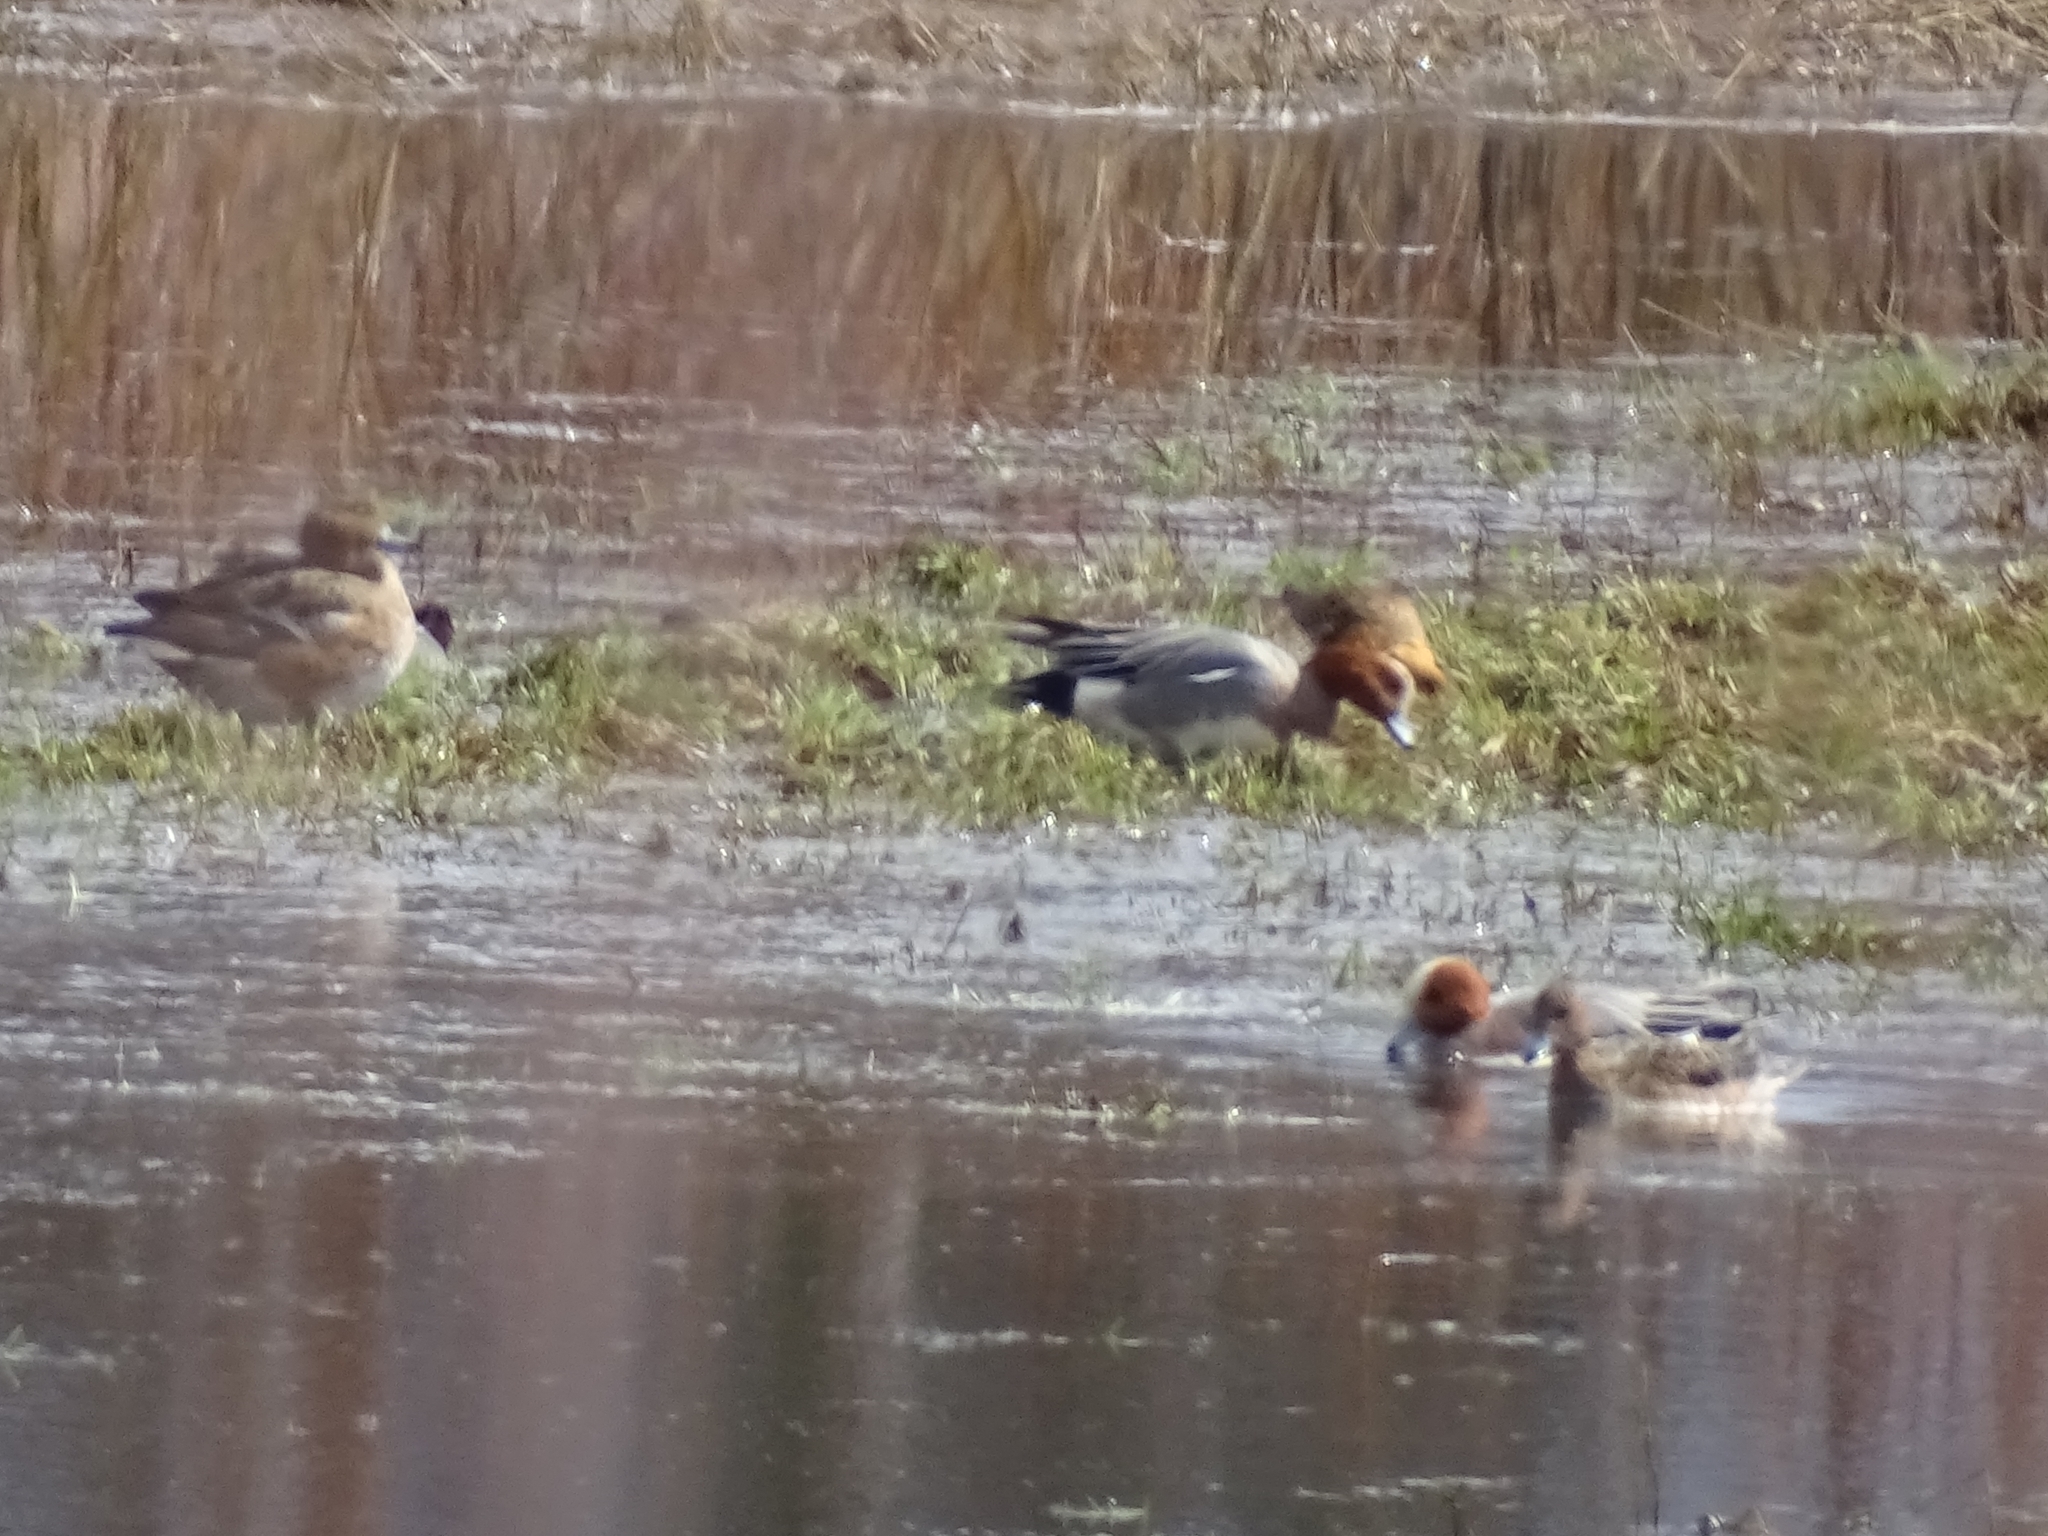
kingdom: Animalia
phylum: Chordata
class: Aves
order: Anseriformes
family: Anatidae
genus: Mareca
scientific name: Mareca penelope
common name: Eurasian wigeon
